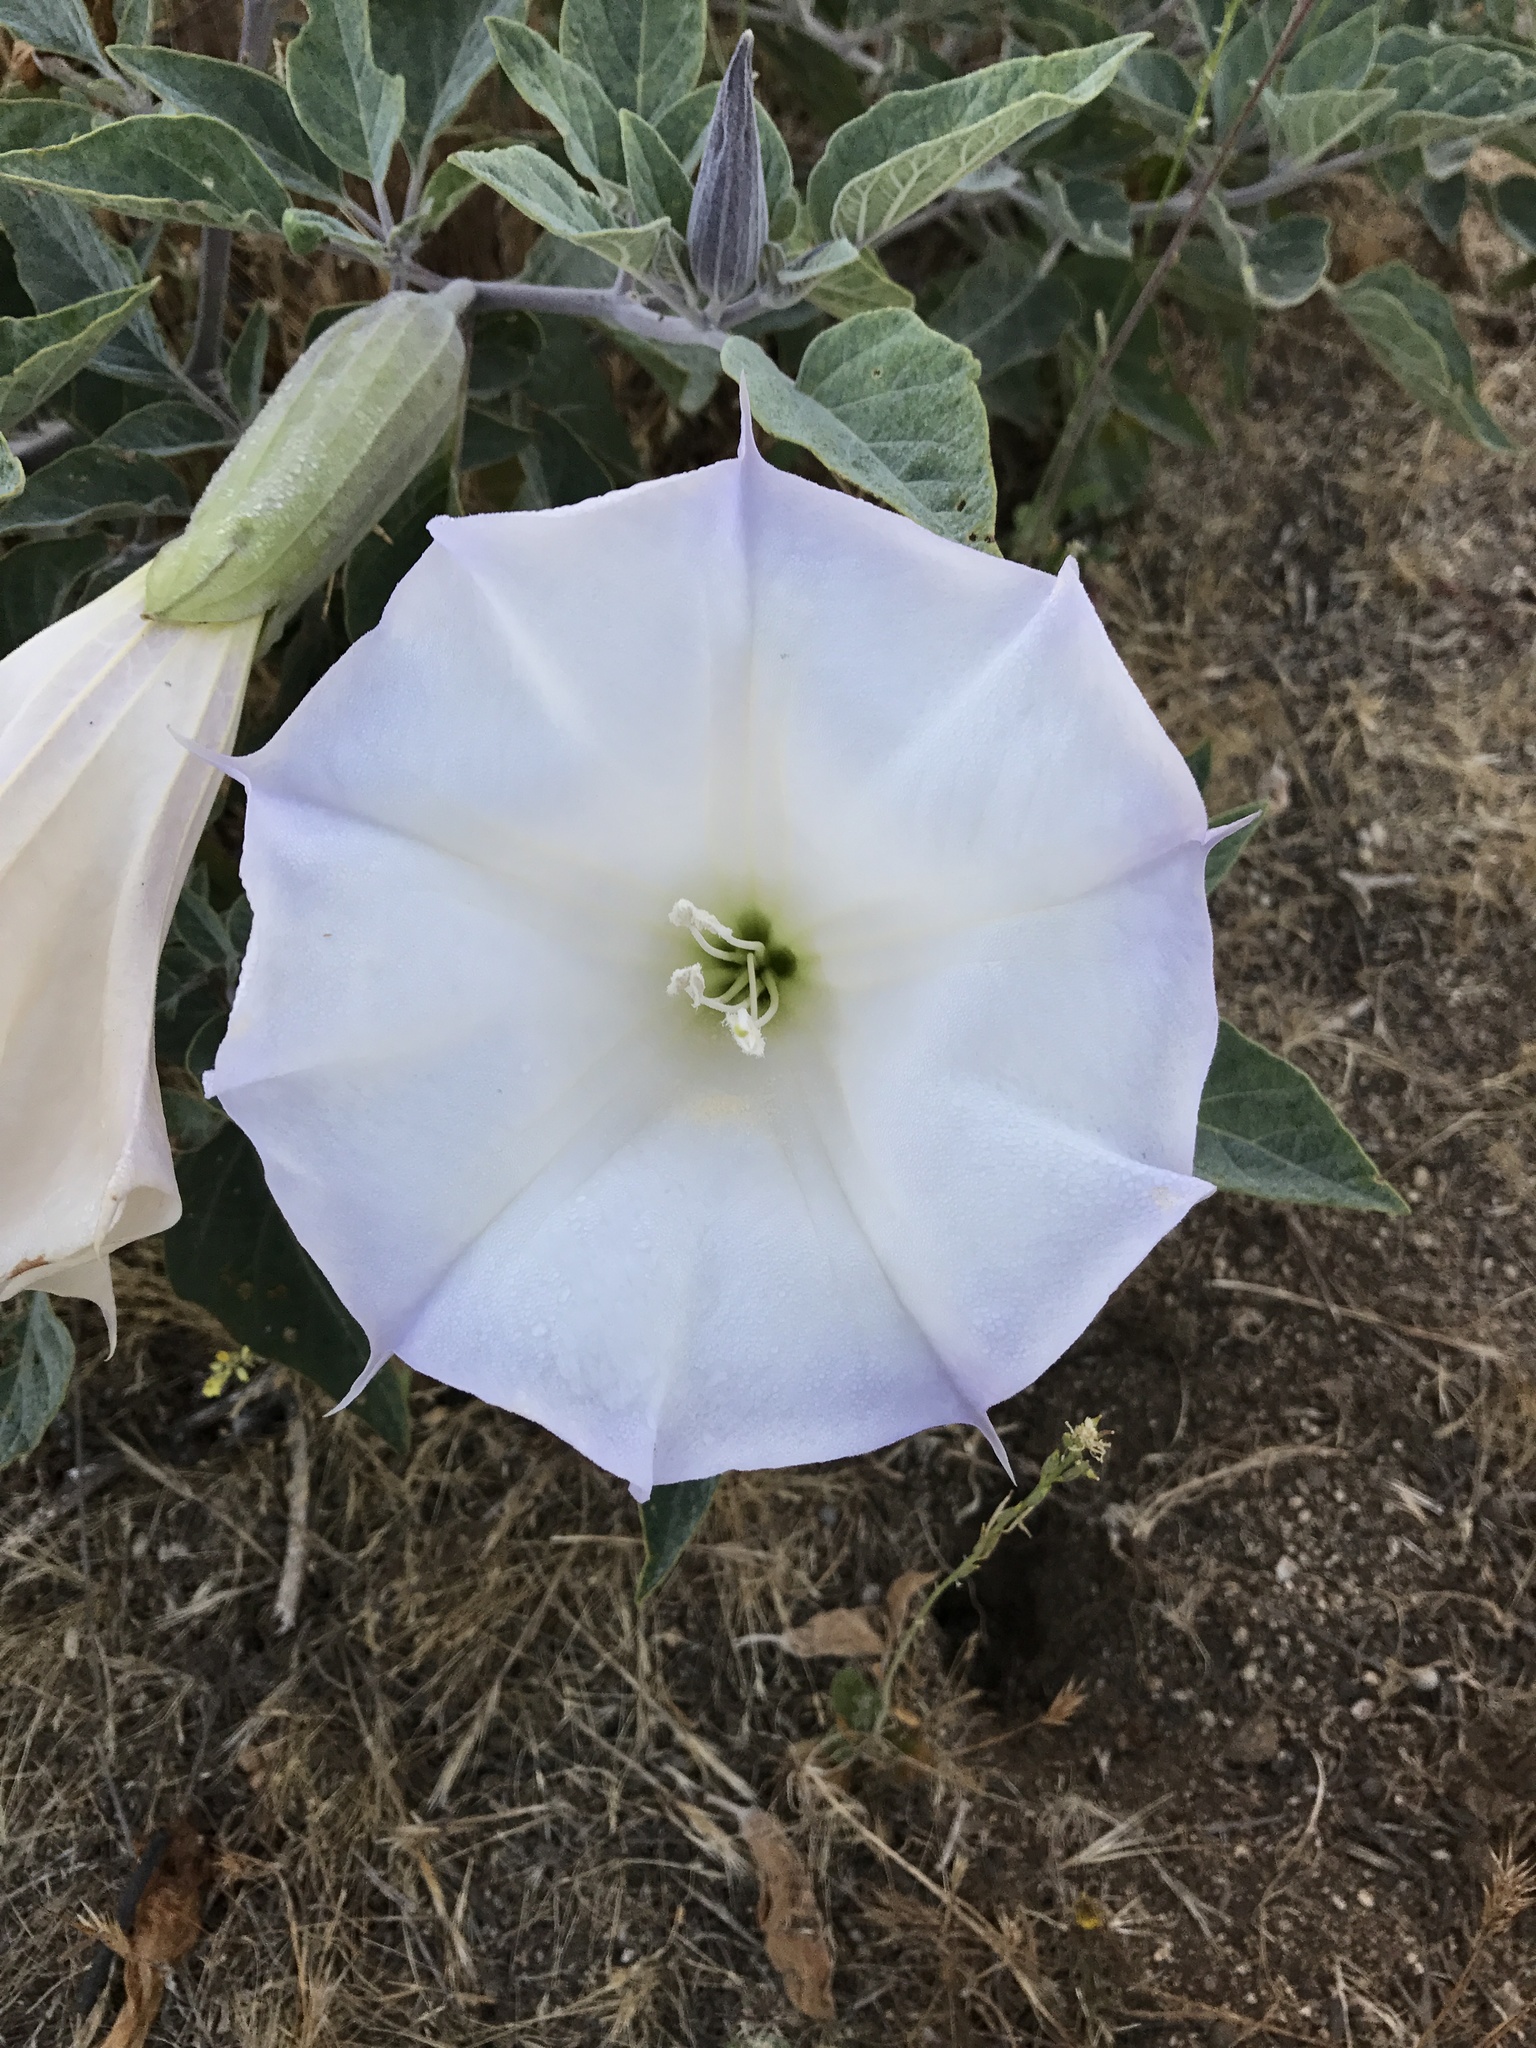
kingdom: Plantae
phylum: Tracheophyta
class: Magnoliopsida
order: Solanales
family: Solanaceae
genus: Datura
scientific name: Datura wrightii
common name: Sacred thorn-apple
